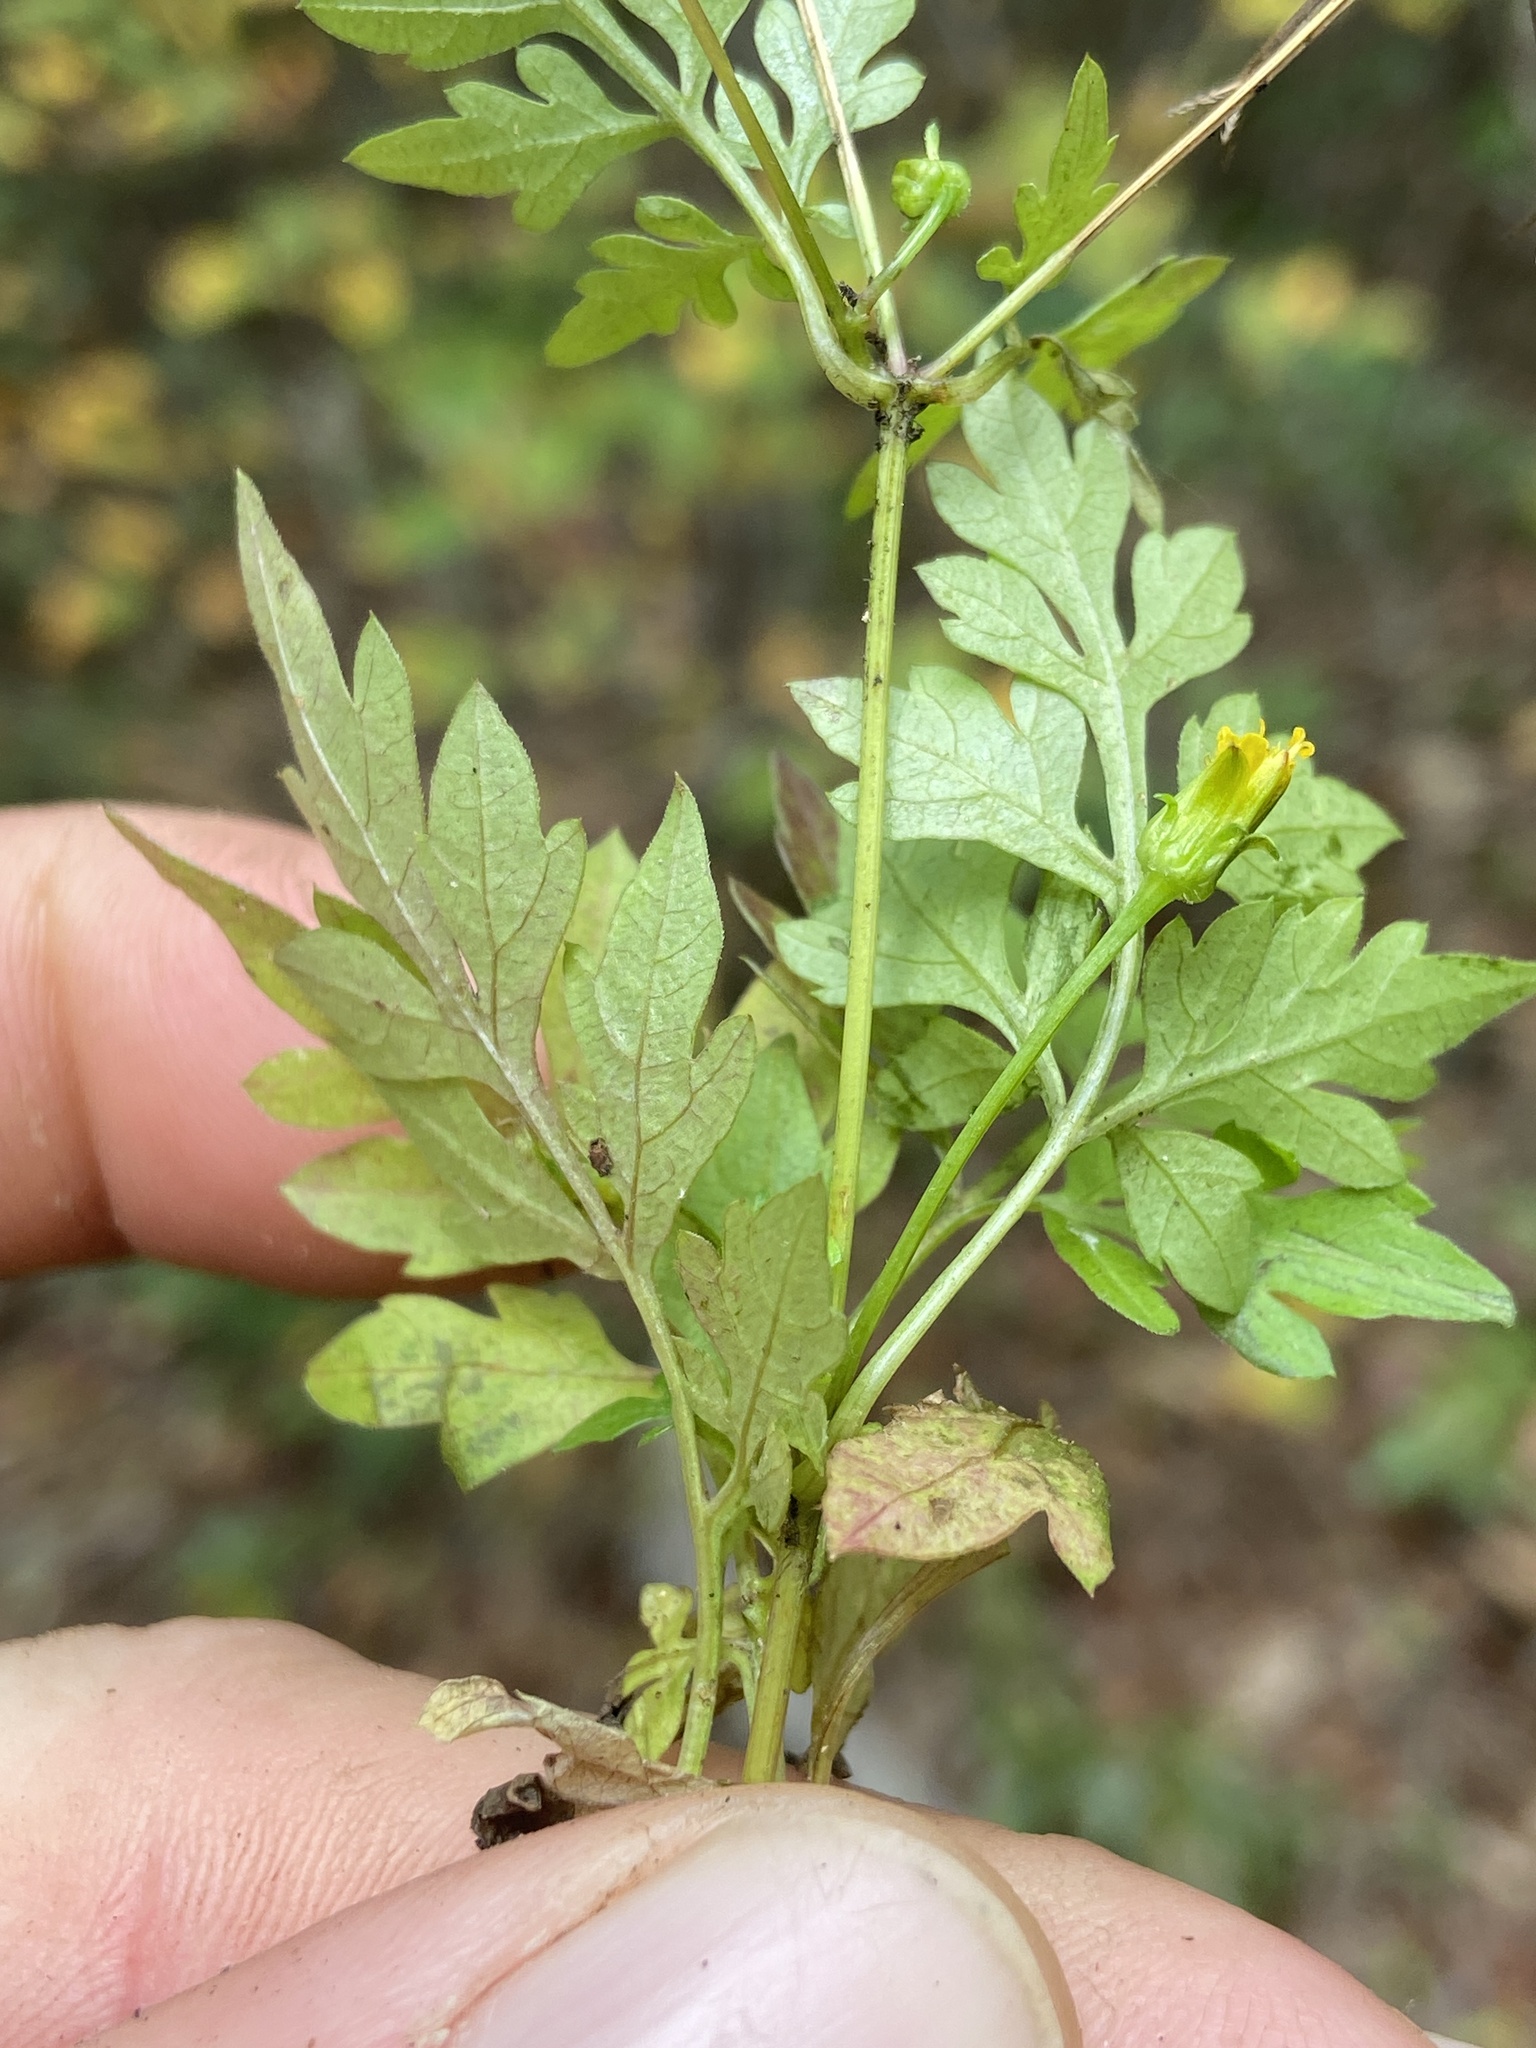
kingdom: Plantae
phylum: Tracheophyta
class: Magnoliopsida
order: Asterales
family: Asteraceae
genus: Bidens
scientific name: Bidens bipinnata
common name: Spanish-needles
